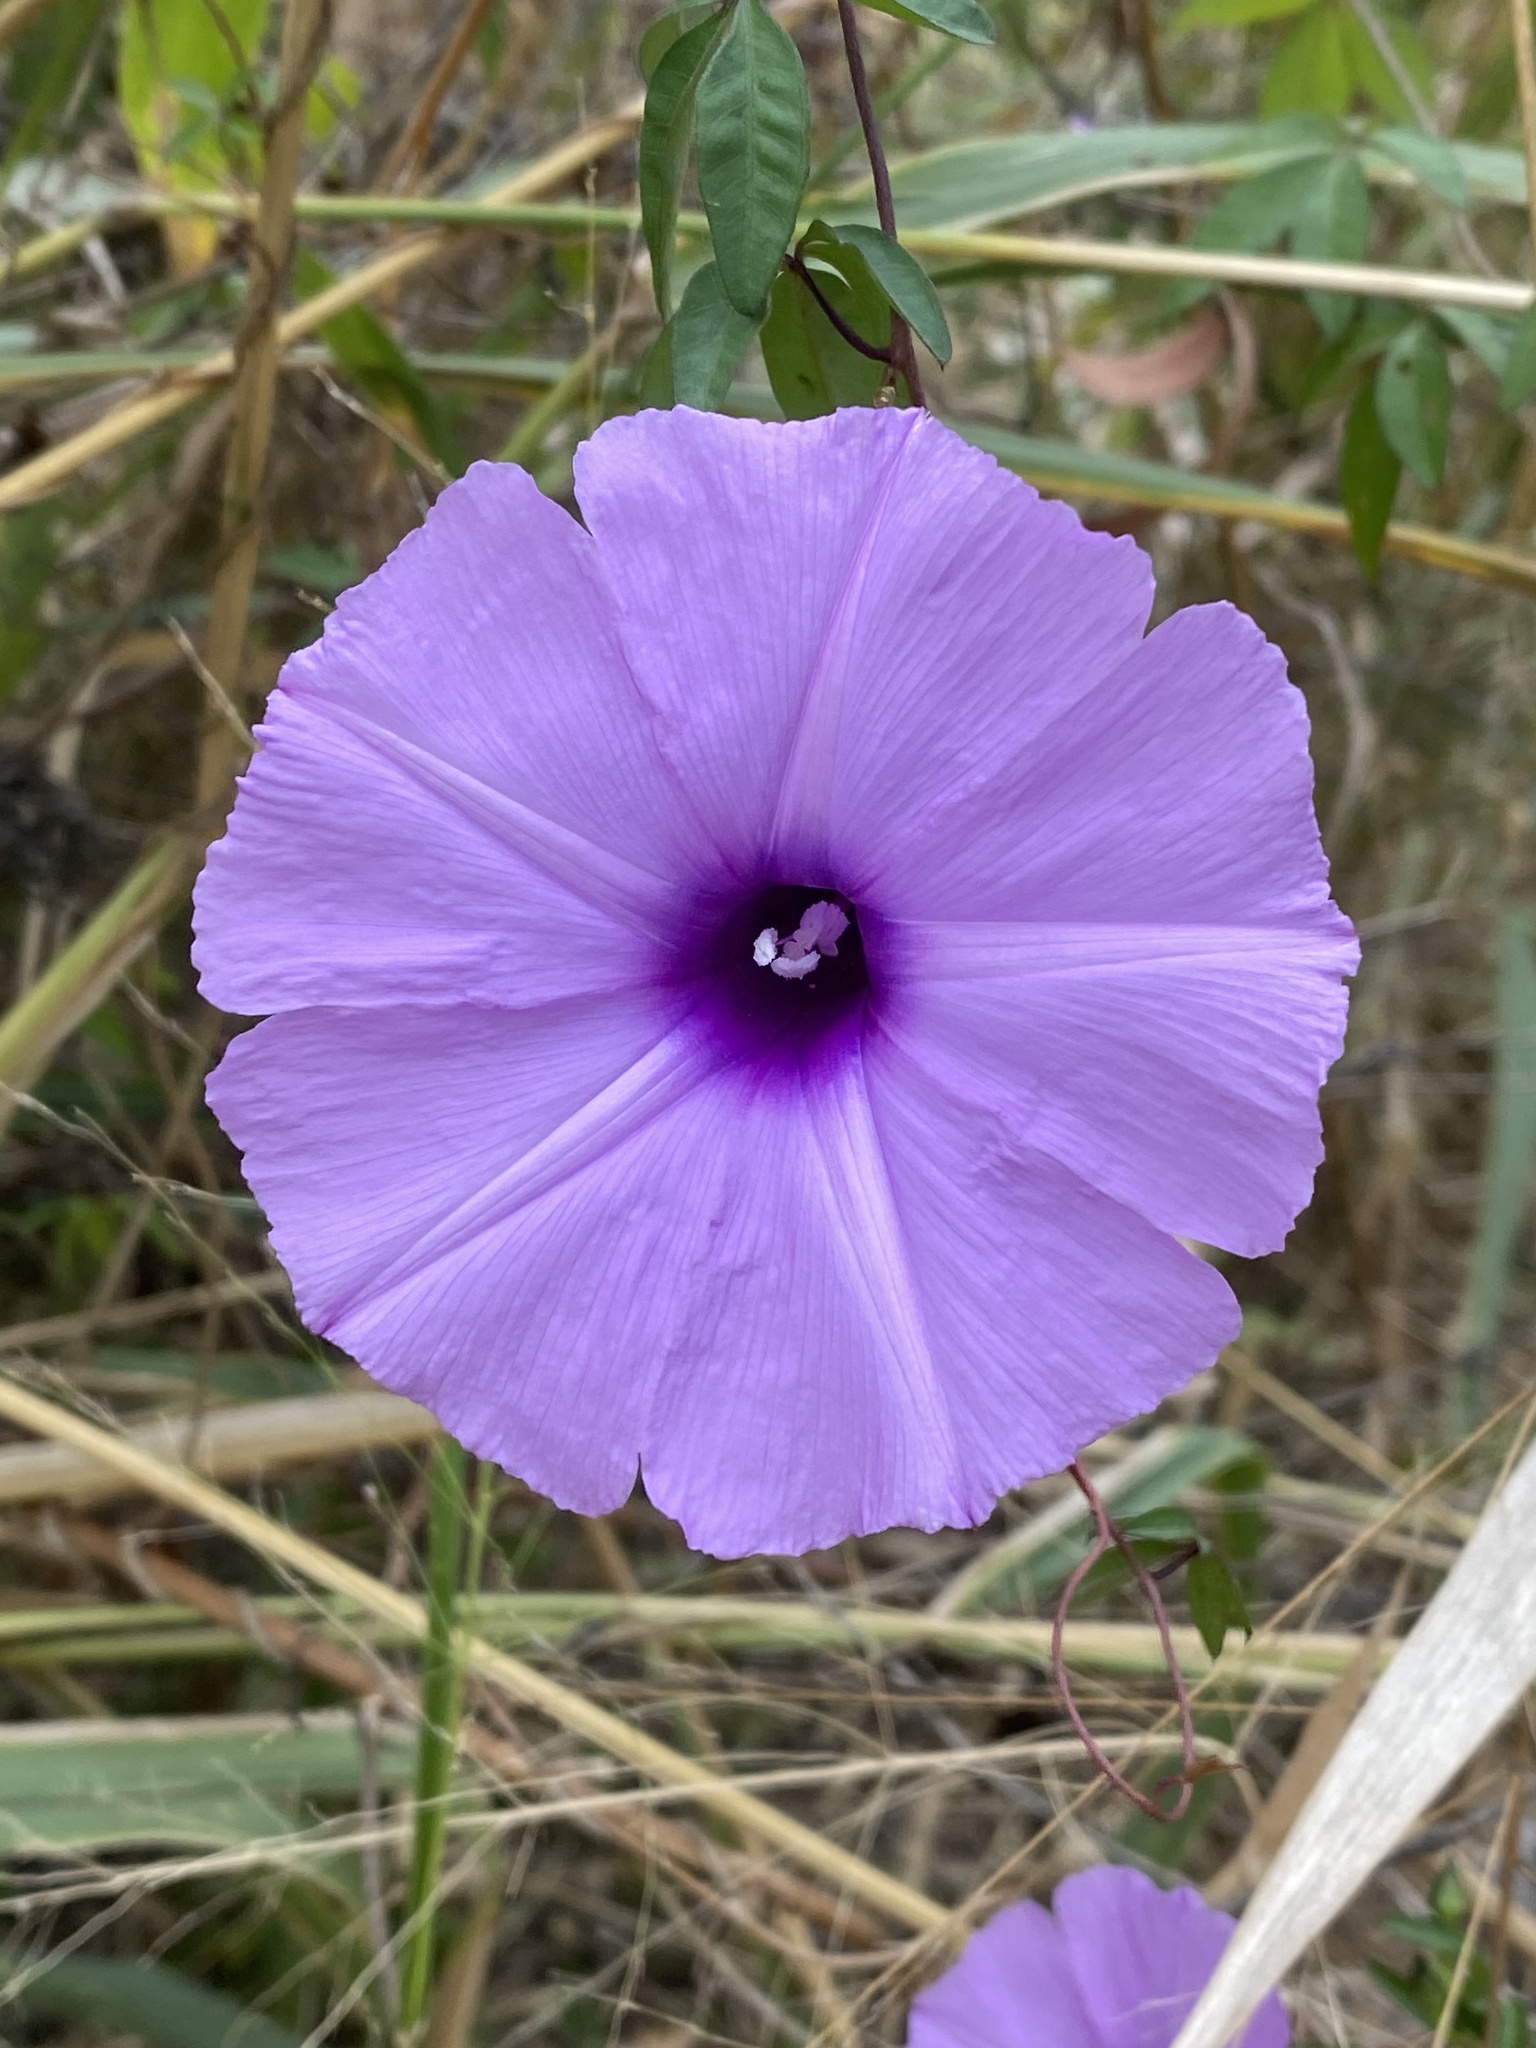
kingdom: Plantae
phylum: Tracheophyta
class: Magnoliopsida
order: Solanales
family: Convolvulaceae
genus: Ipomoea
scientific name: Ipomoea cairica
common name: Mile a minute vine
